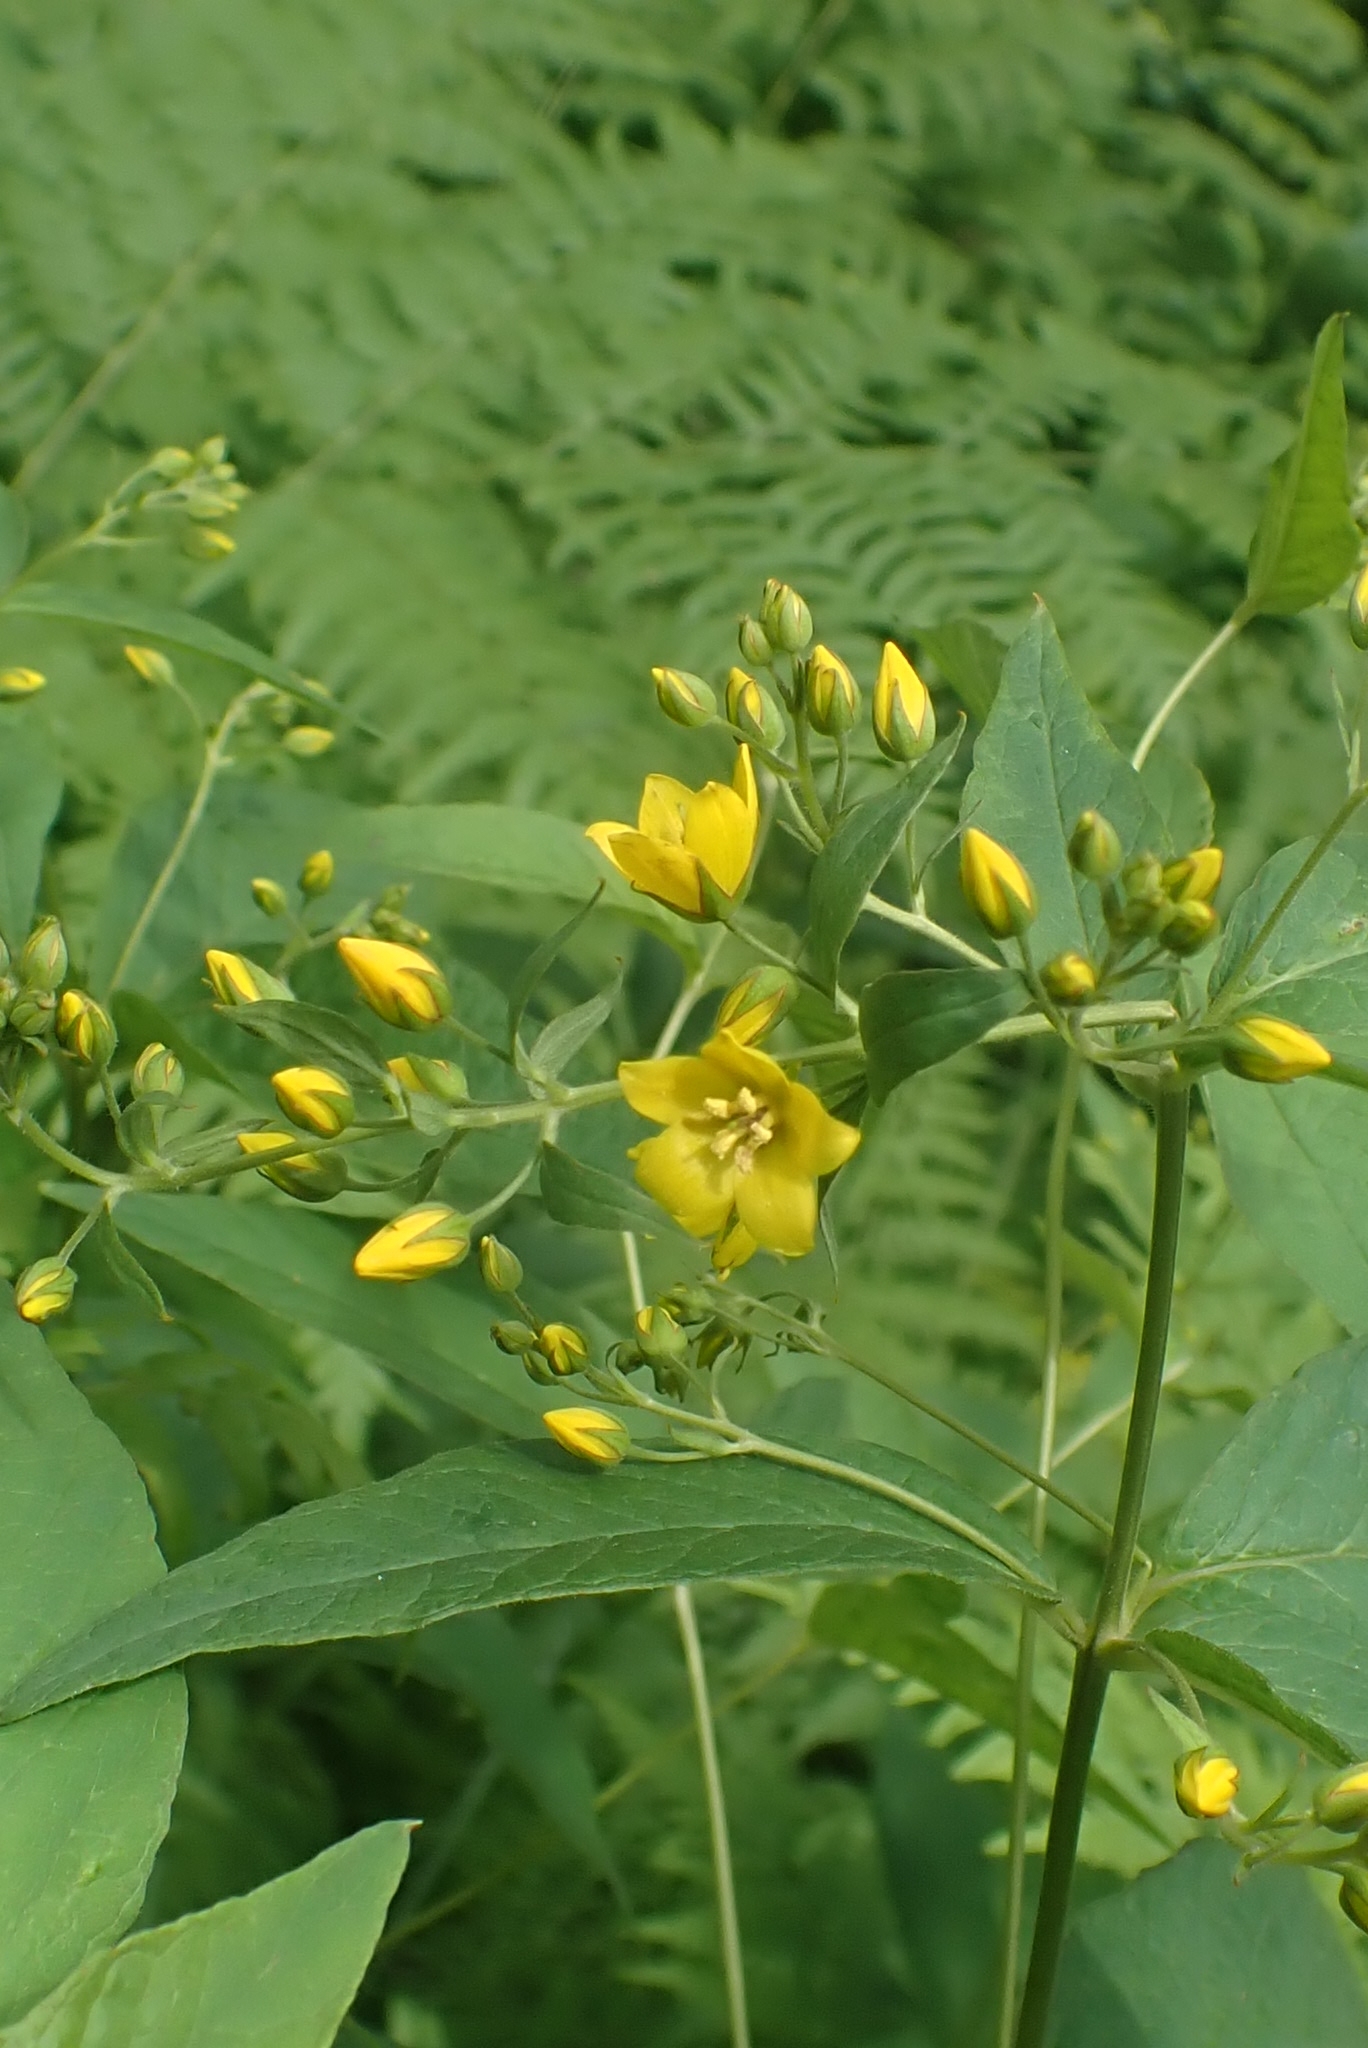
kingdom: Plantae
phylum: Tracheophyta
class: Magnoliopsida
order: Ericales
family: Primulaceae
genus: Lysimachia
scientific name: Lysimachia vulgaris
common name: Yellow loosestrife
